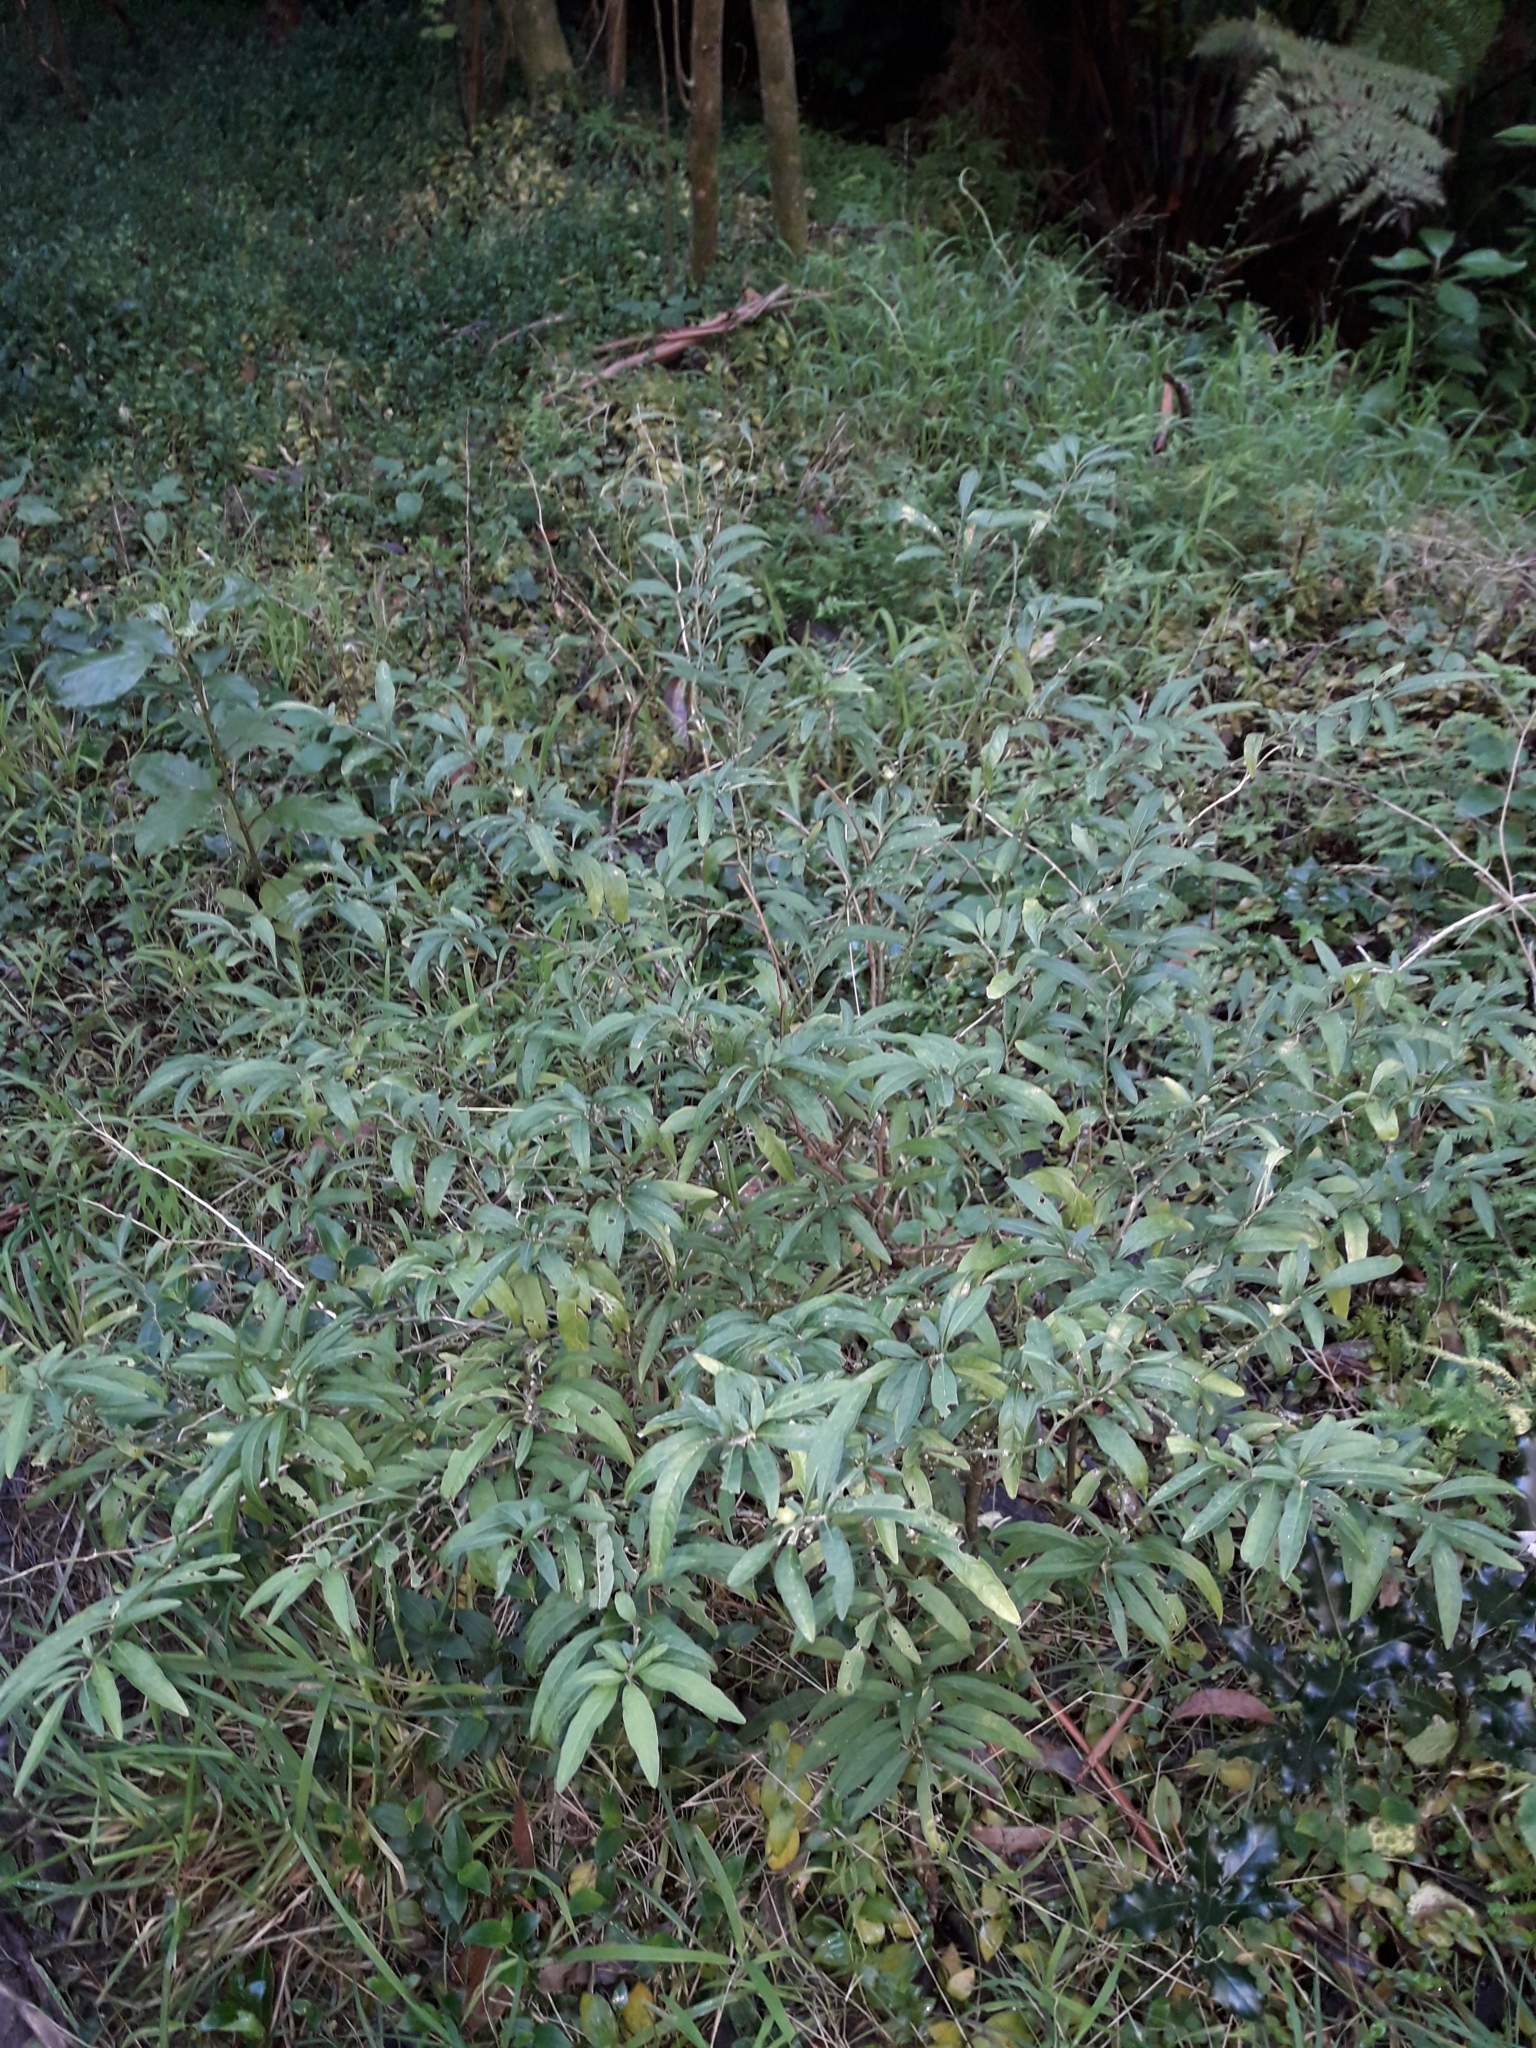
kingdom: Plantae
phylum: Tracheophyta
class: Magnoliopsida
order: Solanales
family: Solanaceae
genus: Solanum
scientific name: Solanum pseudocapsicum
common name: Jerusalem cherry
